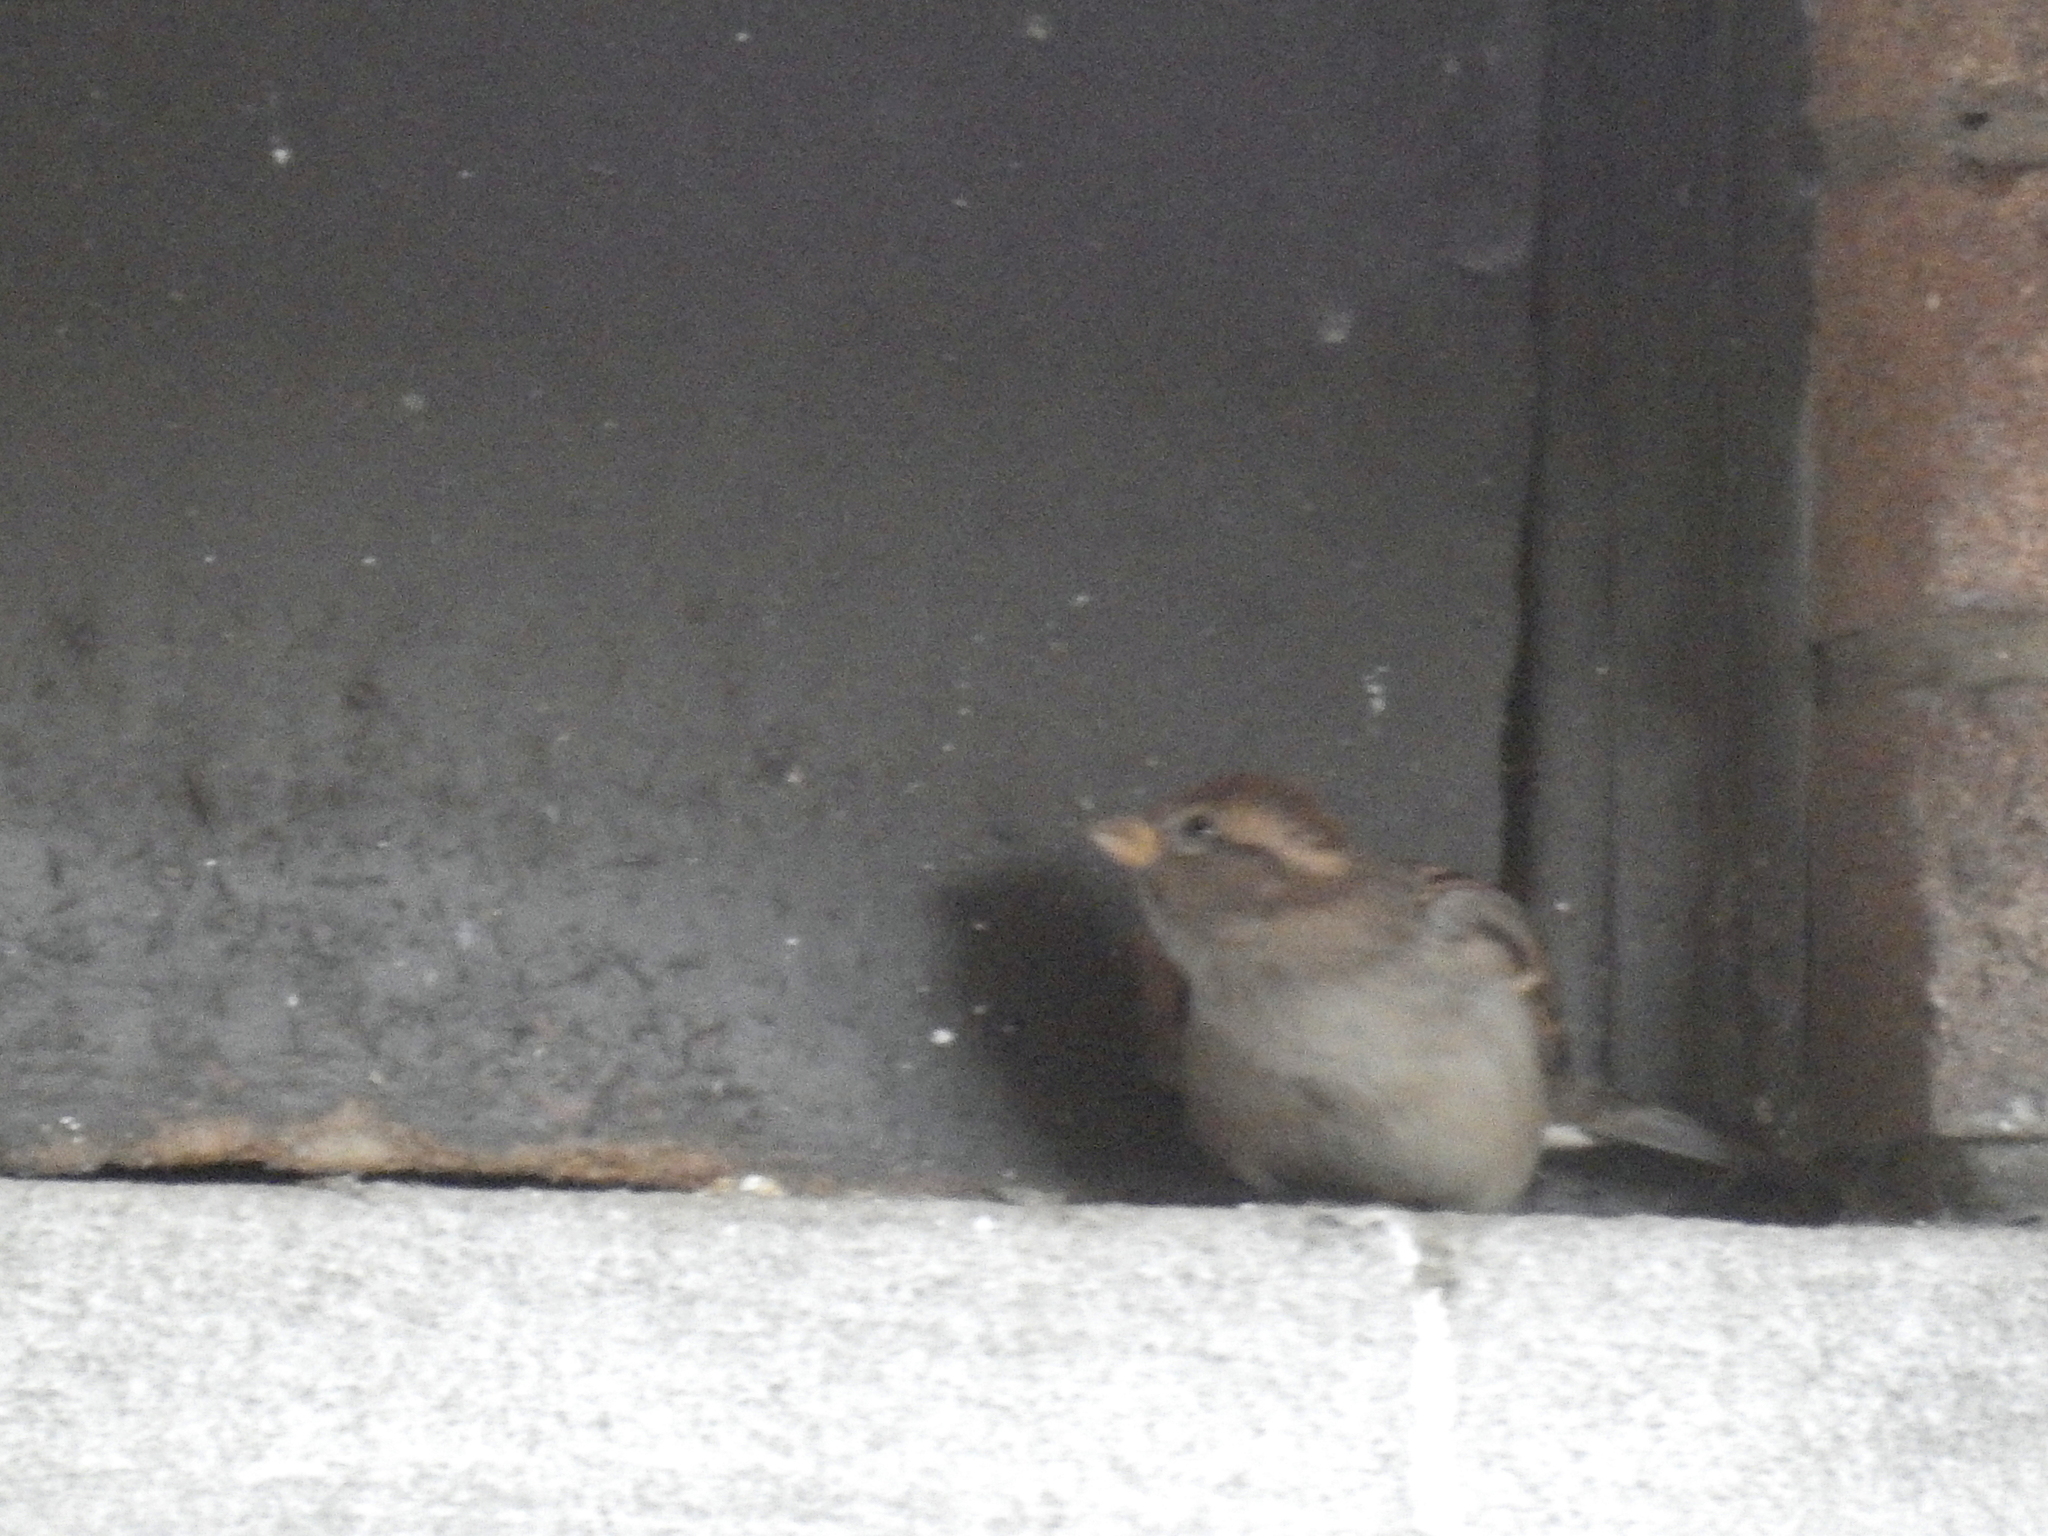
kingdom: Animalia
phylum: Chordata
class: Aves
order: Passeriformes
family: Passeridae
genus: Passer
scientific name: Passer domesticus
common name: House sparrow
